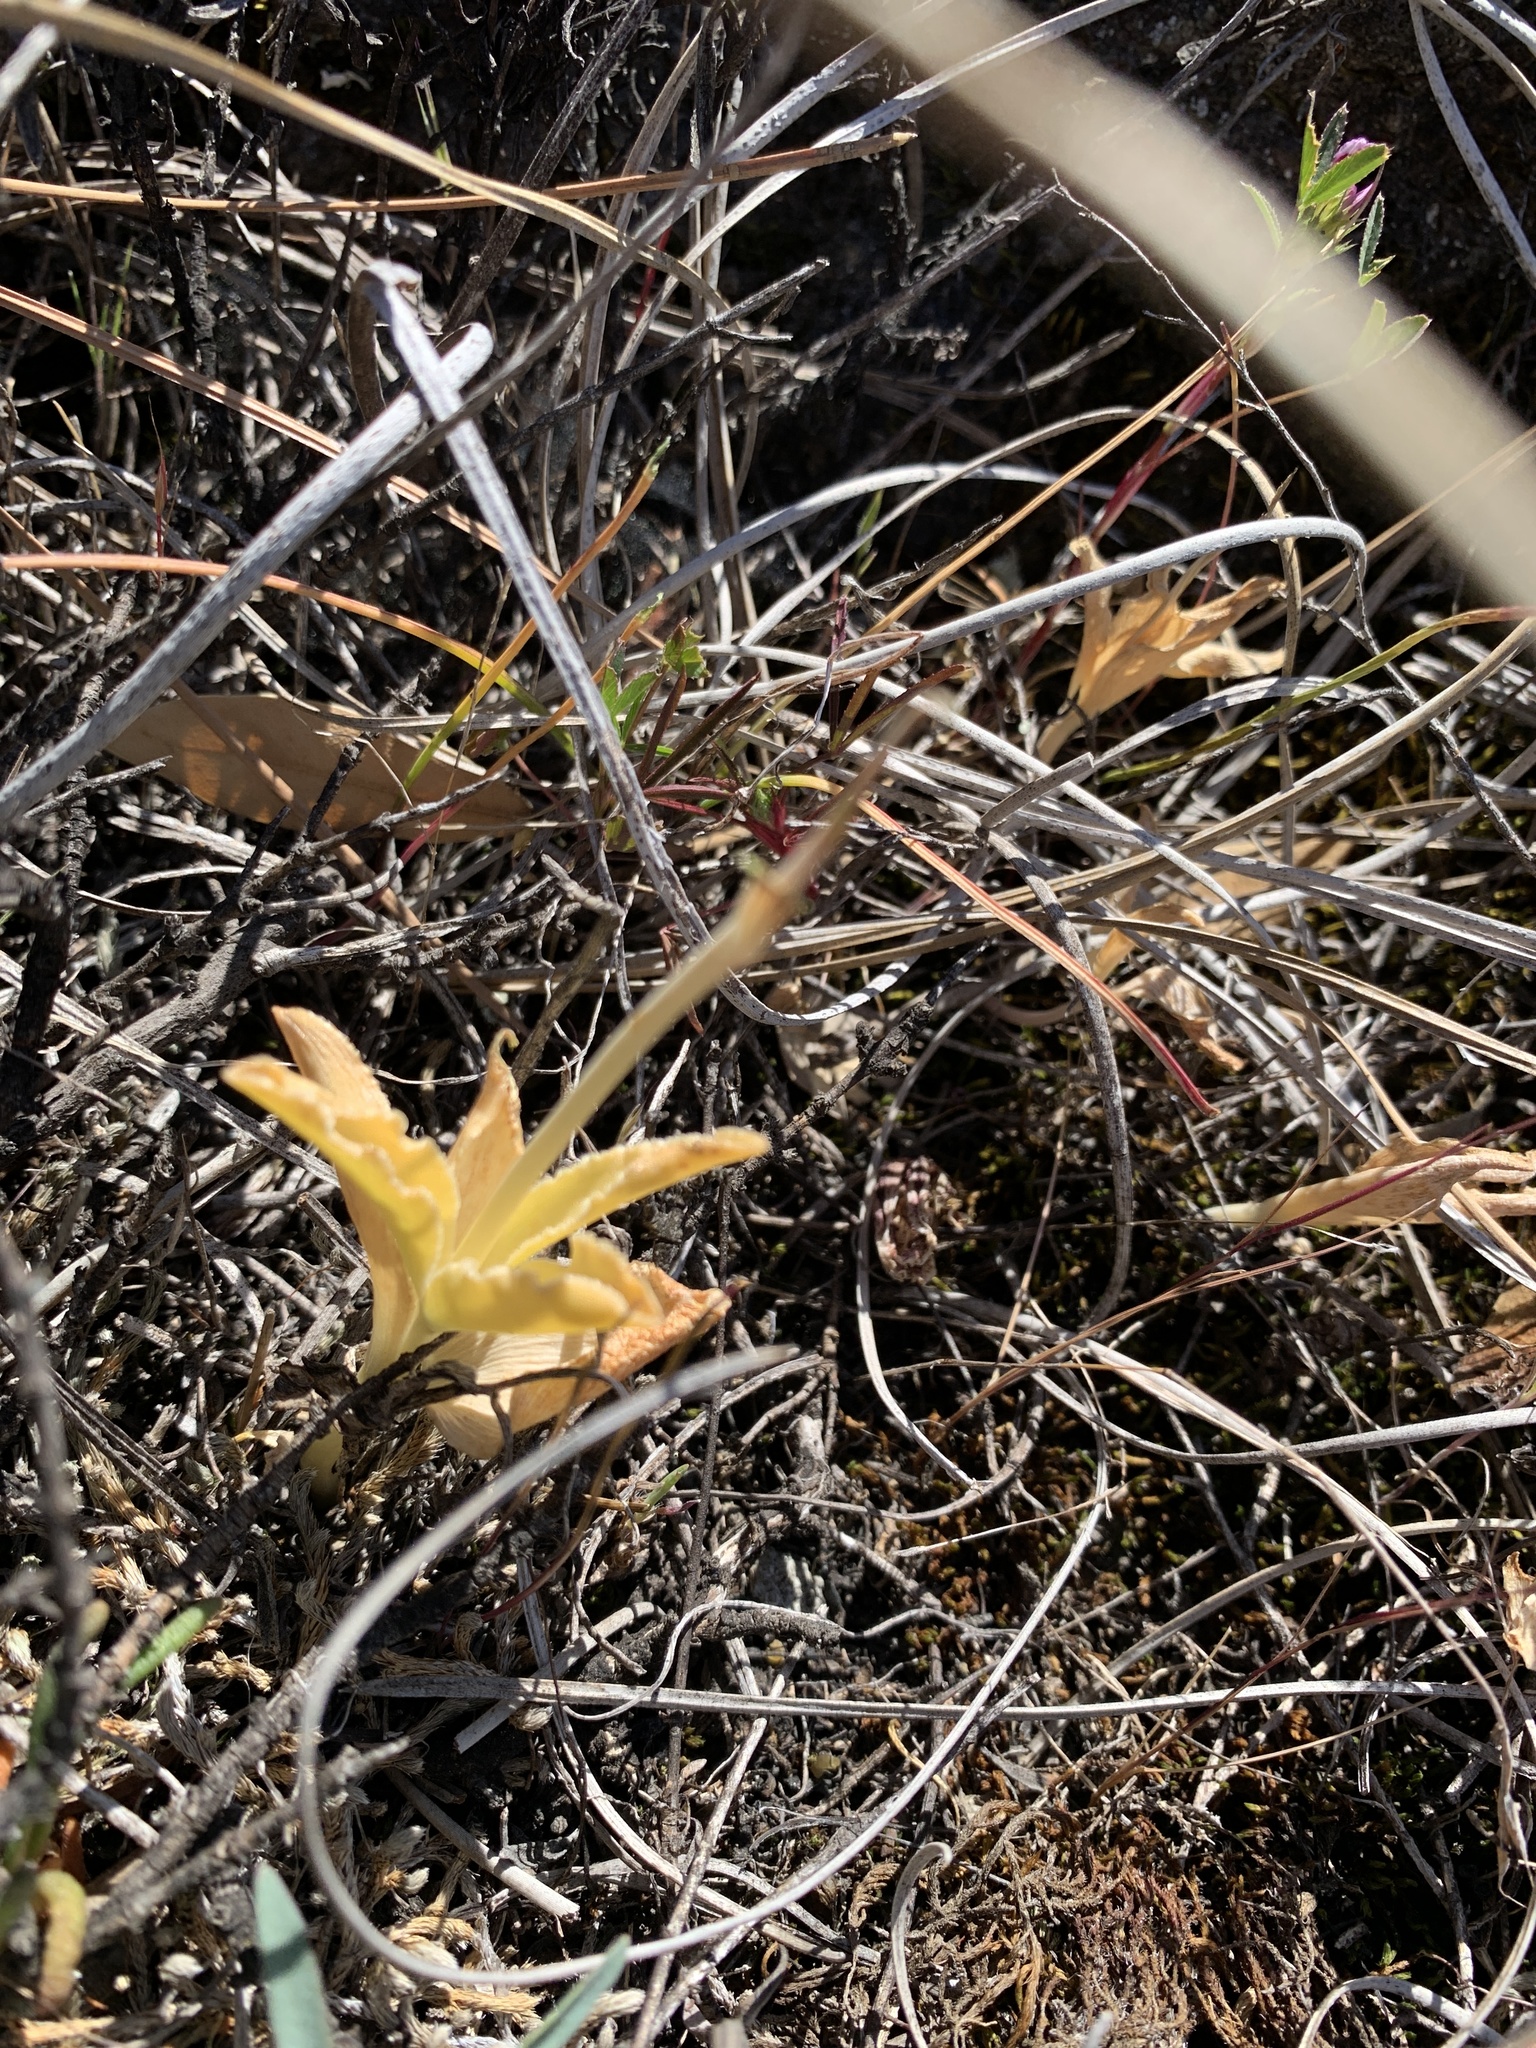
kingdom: Plantae
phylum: Tracheophyta
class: Liliopsida
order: Liliales
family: Liliaceae
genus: Fritillaria
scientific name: Fritillaria purdyi
